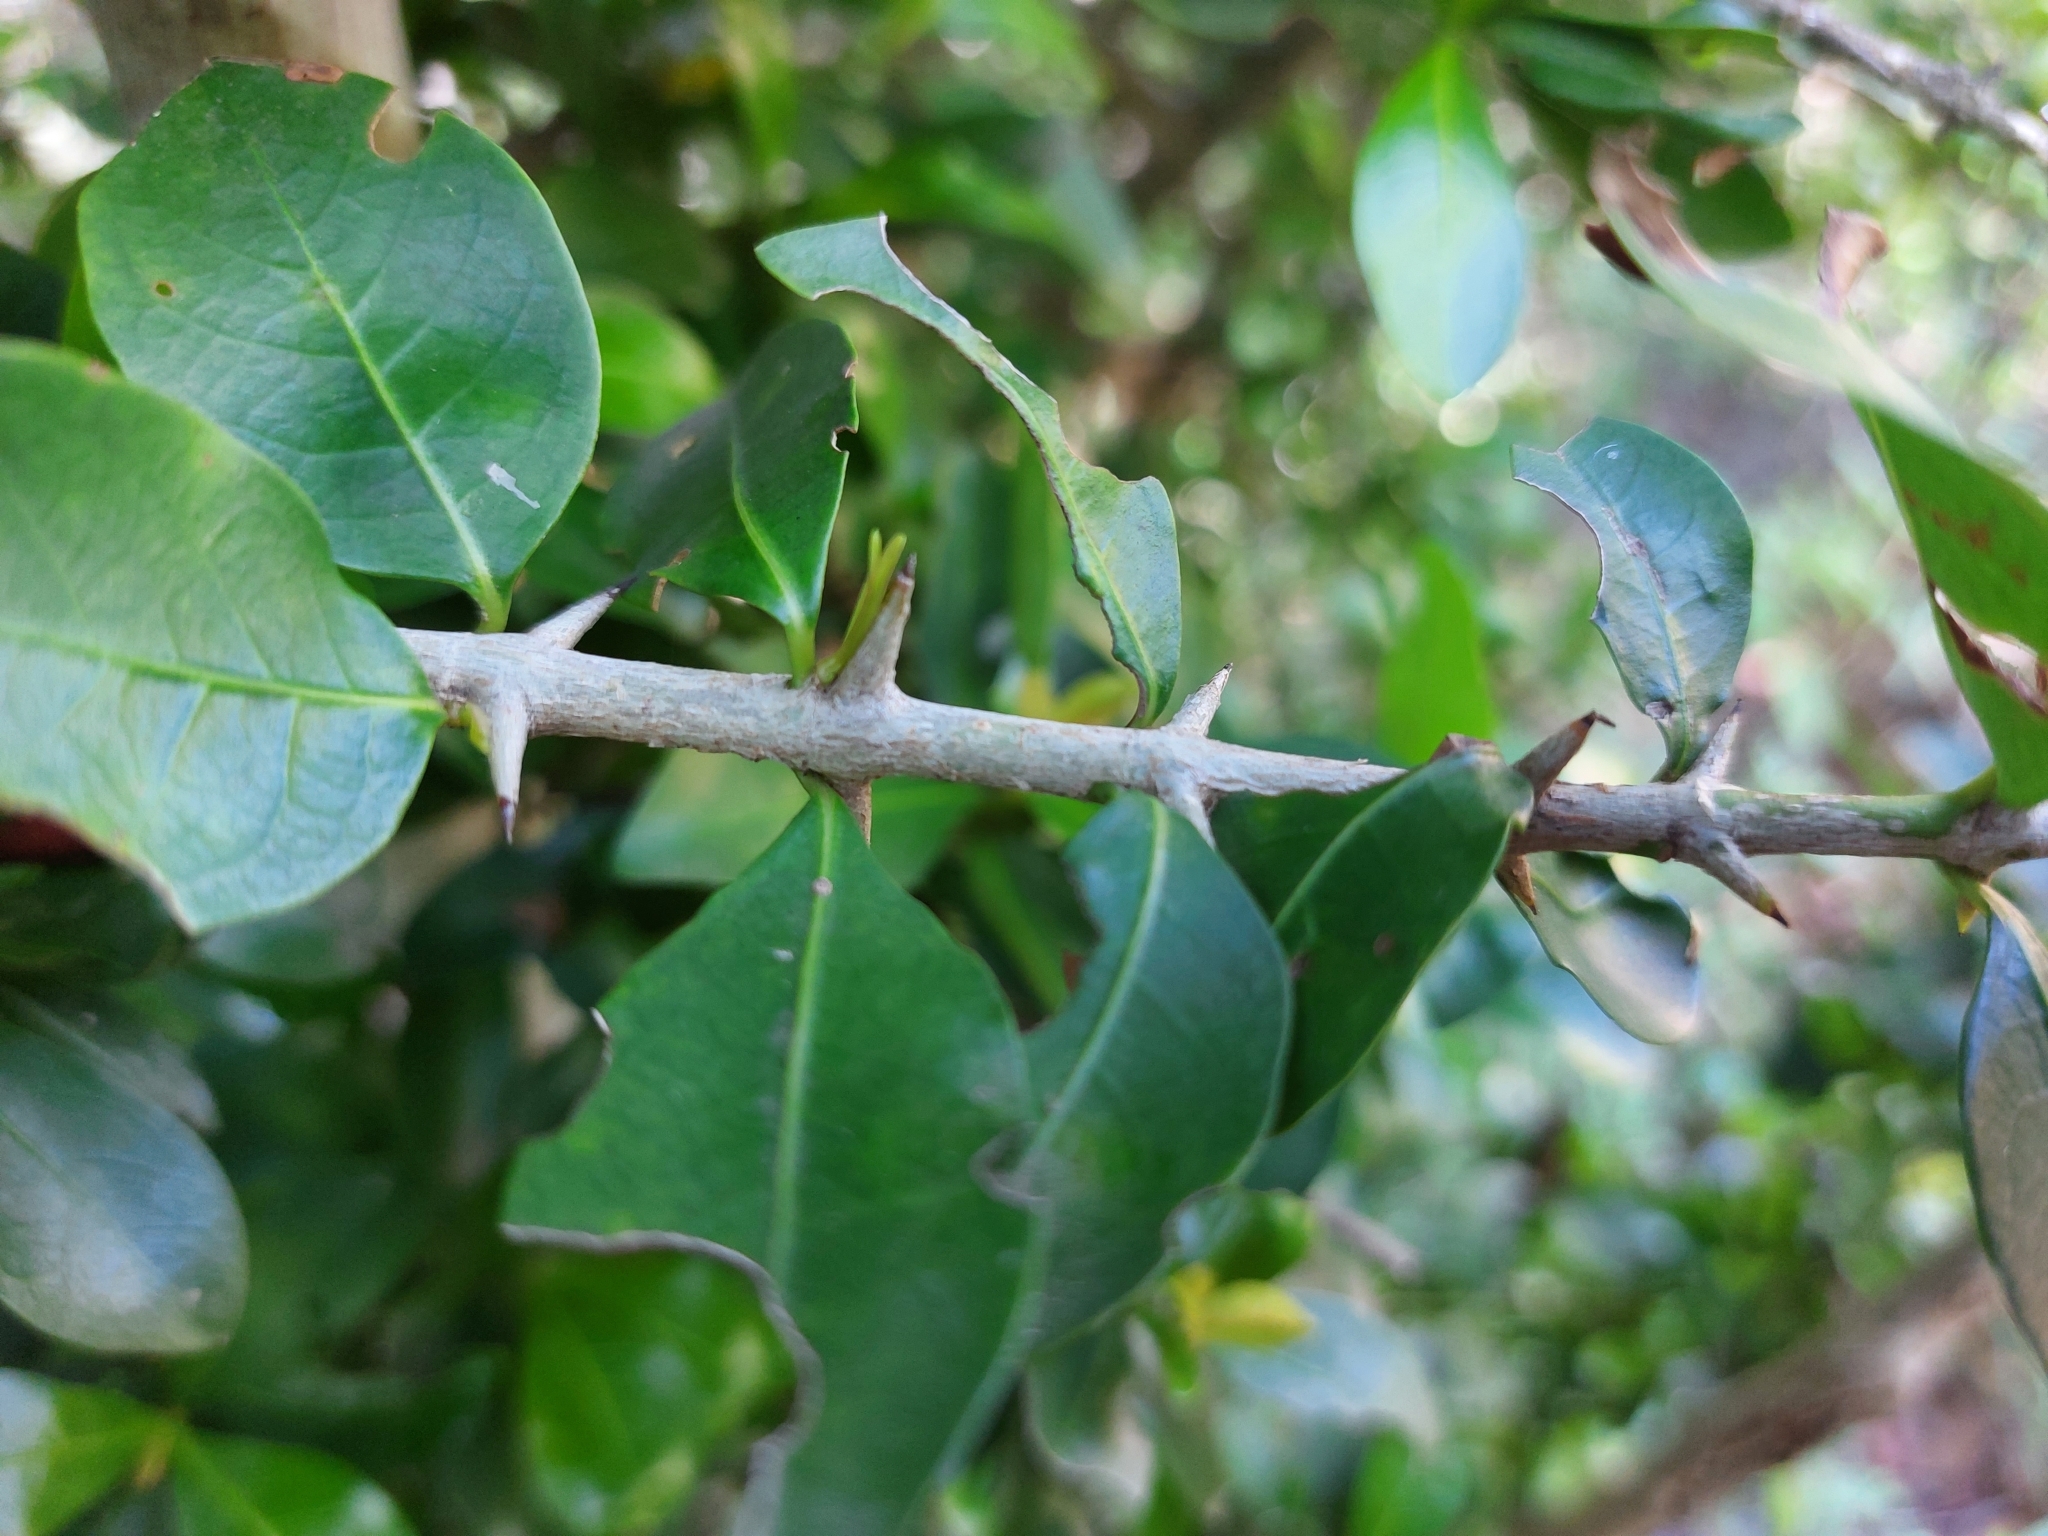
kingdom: Plantae
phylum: Tracheophyta
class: Magnoliopsida
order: Gentianales
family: Rubiaceae
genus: Hyperacanthus
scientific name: Hyperacanthus amoenus
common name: Spiny gardenia
